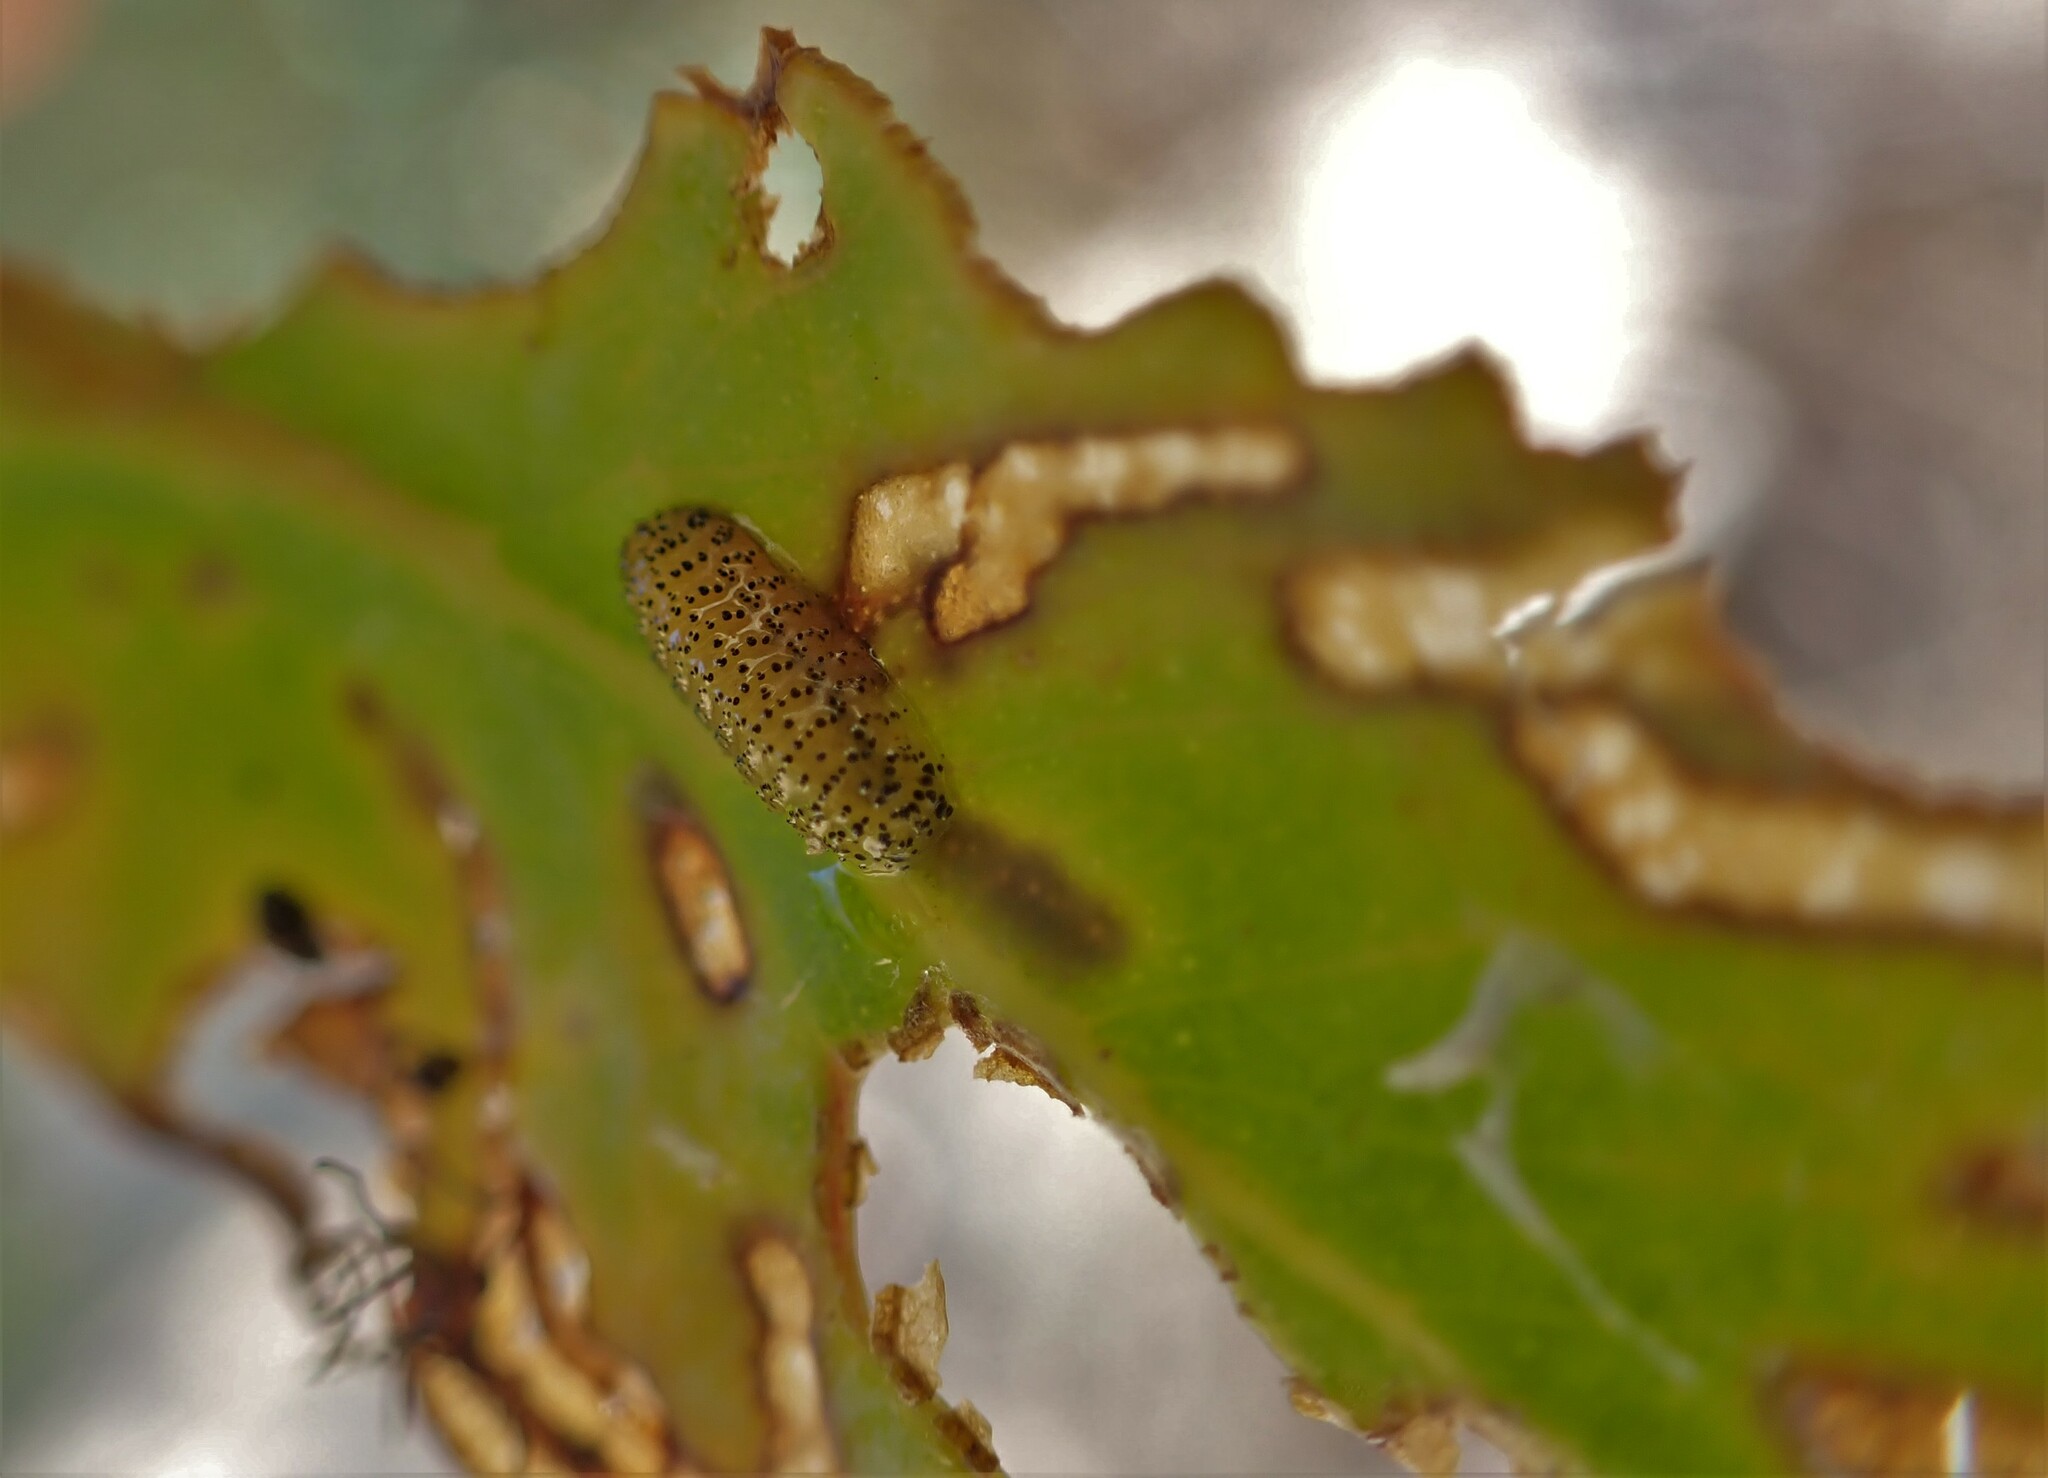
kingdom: Animalia
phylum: Arthropoda
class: Insecta
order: Coleoptera
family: Curculionidae
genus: Gonipterus
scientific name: Gonipterus platensis
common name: Eucalyptus snout beetle
